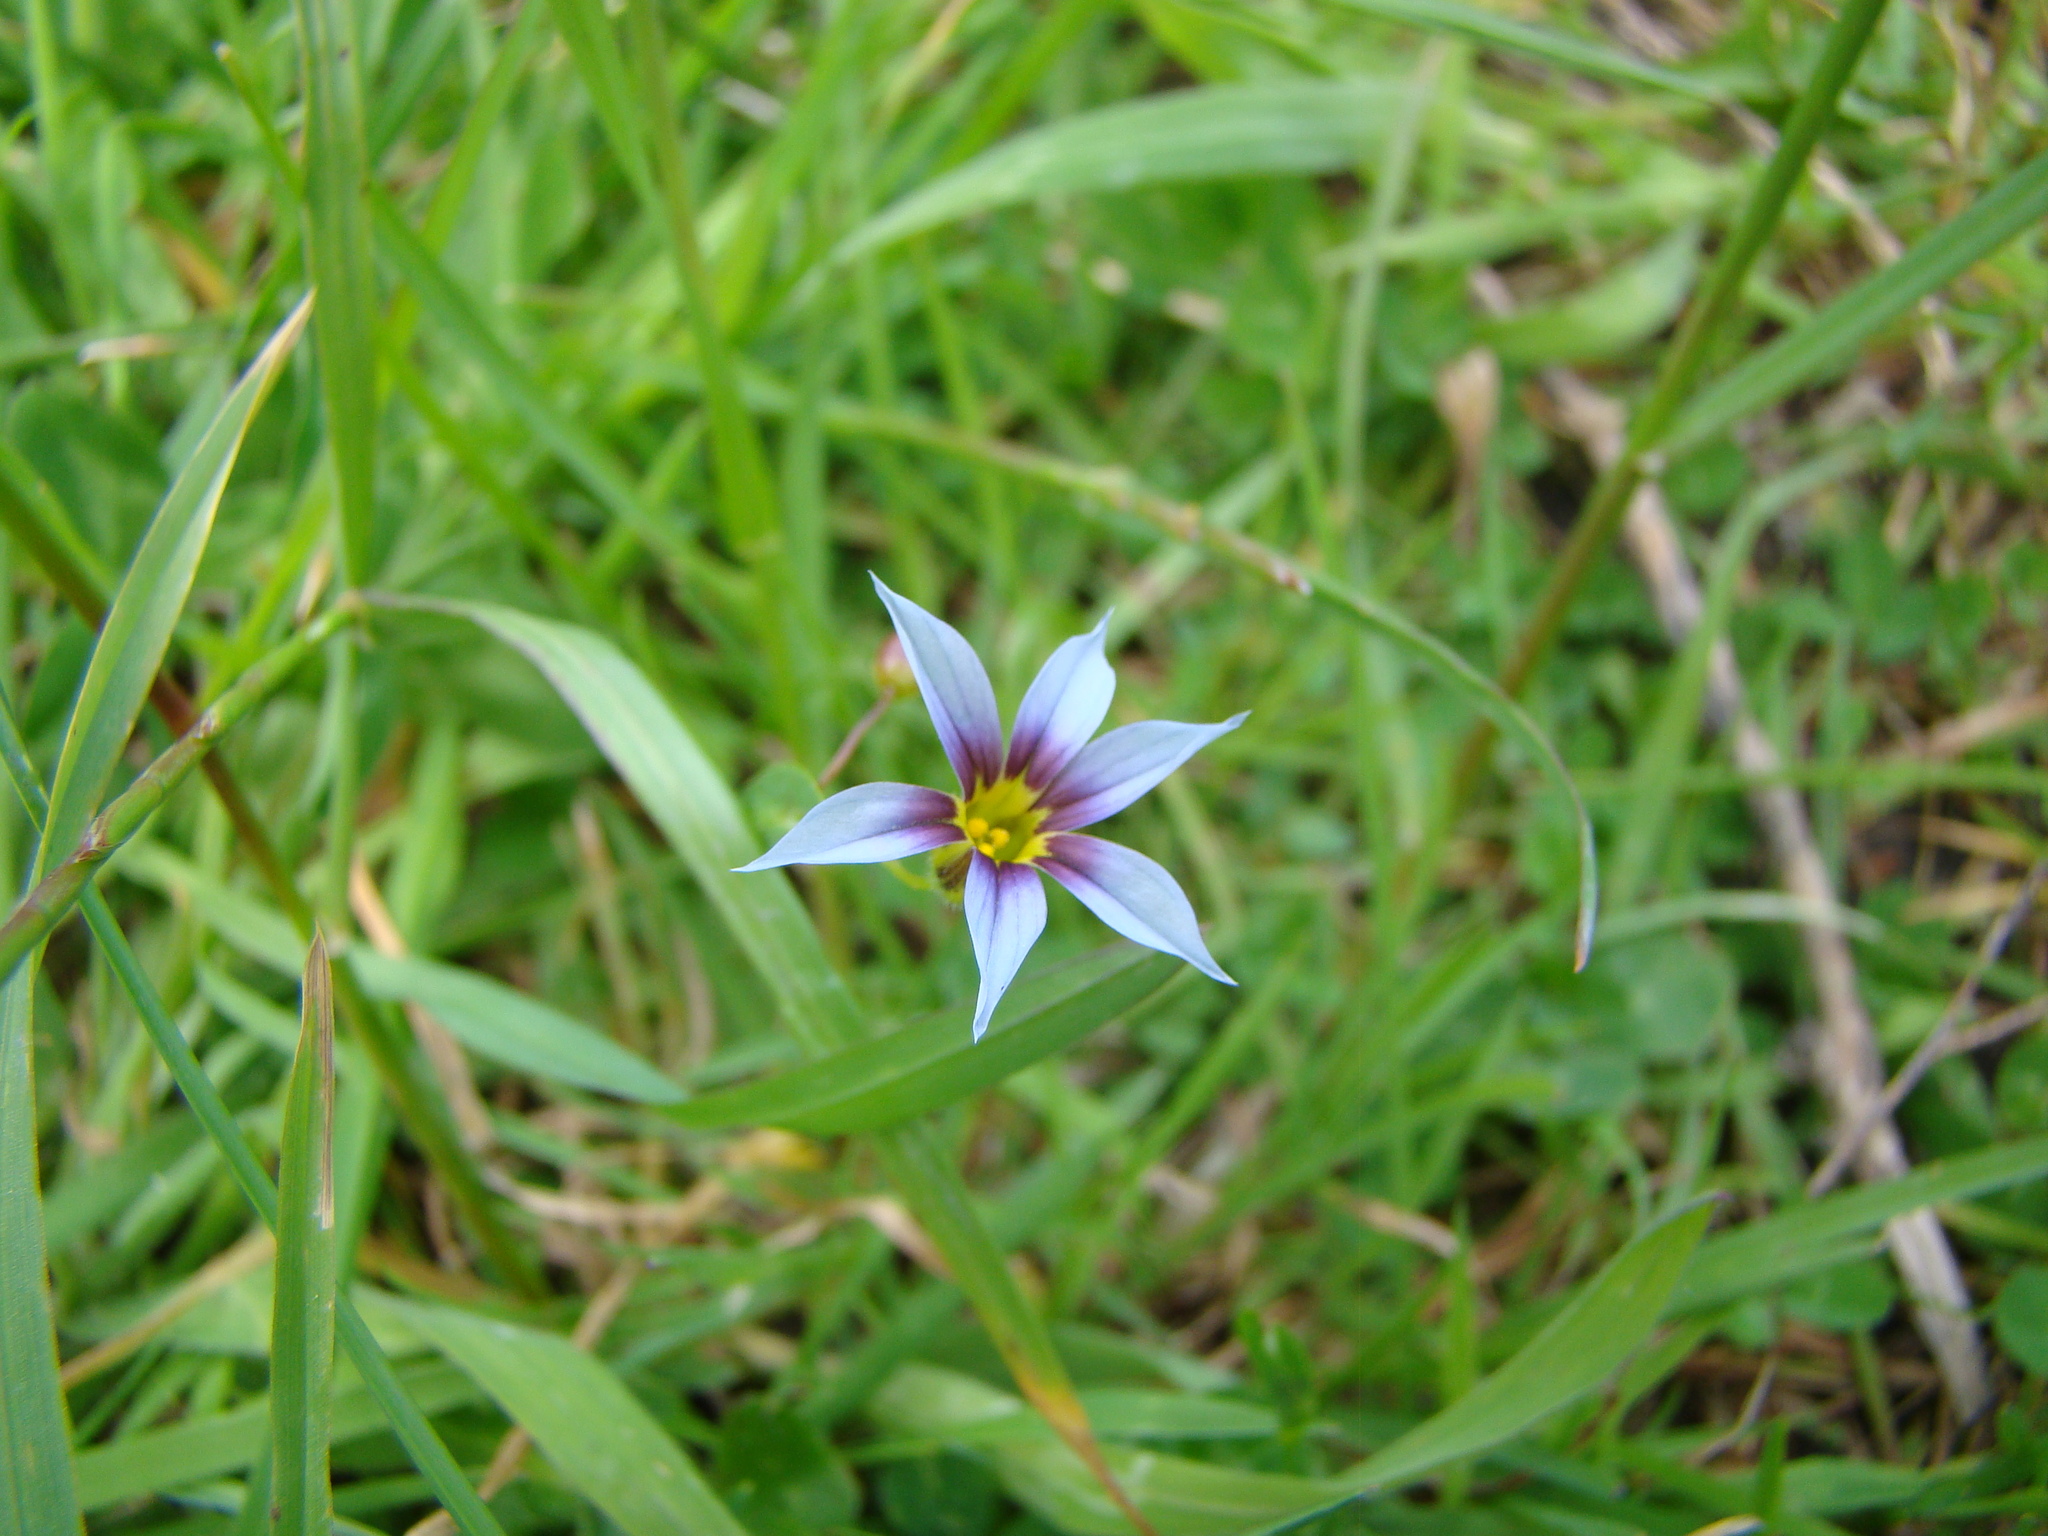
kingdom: Plantae
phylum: Tracheophyta
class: Liliopsida
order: Asparagales
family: Iridaceae
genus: Sisyrinchium
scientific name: Sisyrinchium micranthum
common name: Bermuda pigroot
